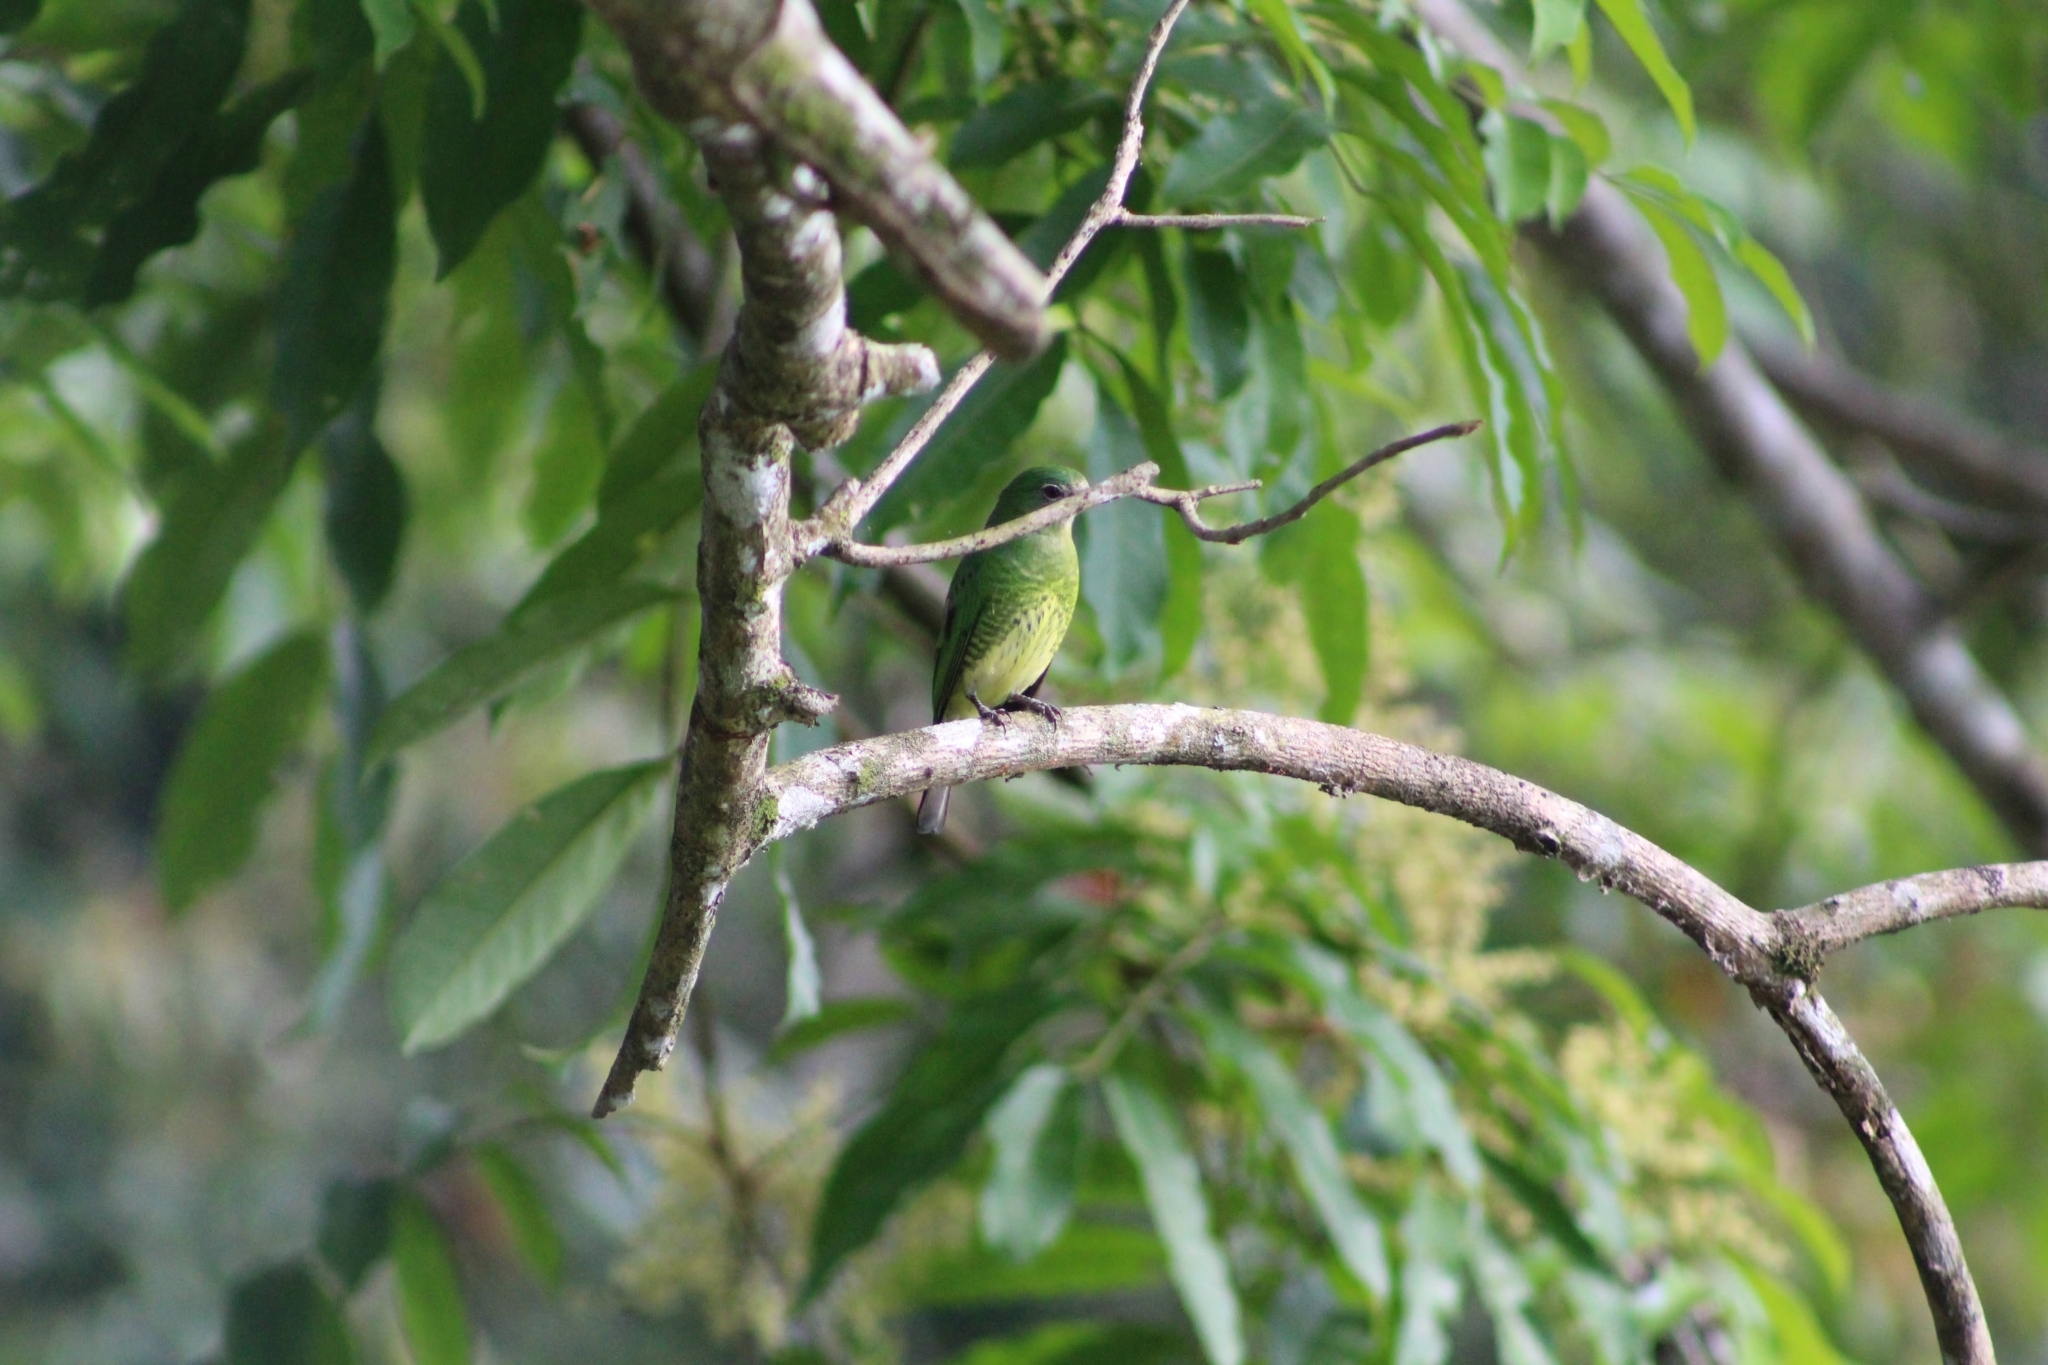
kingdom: Animalia
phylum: Chordata
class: Aves
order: Passeriformes
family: Thraupidae
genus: Tersina
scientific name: Tersina viridis
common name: Swallow tanager
